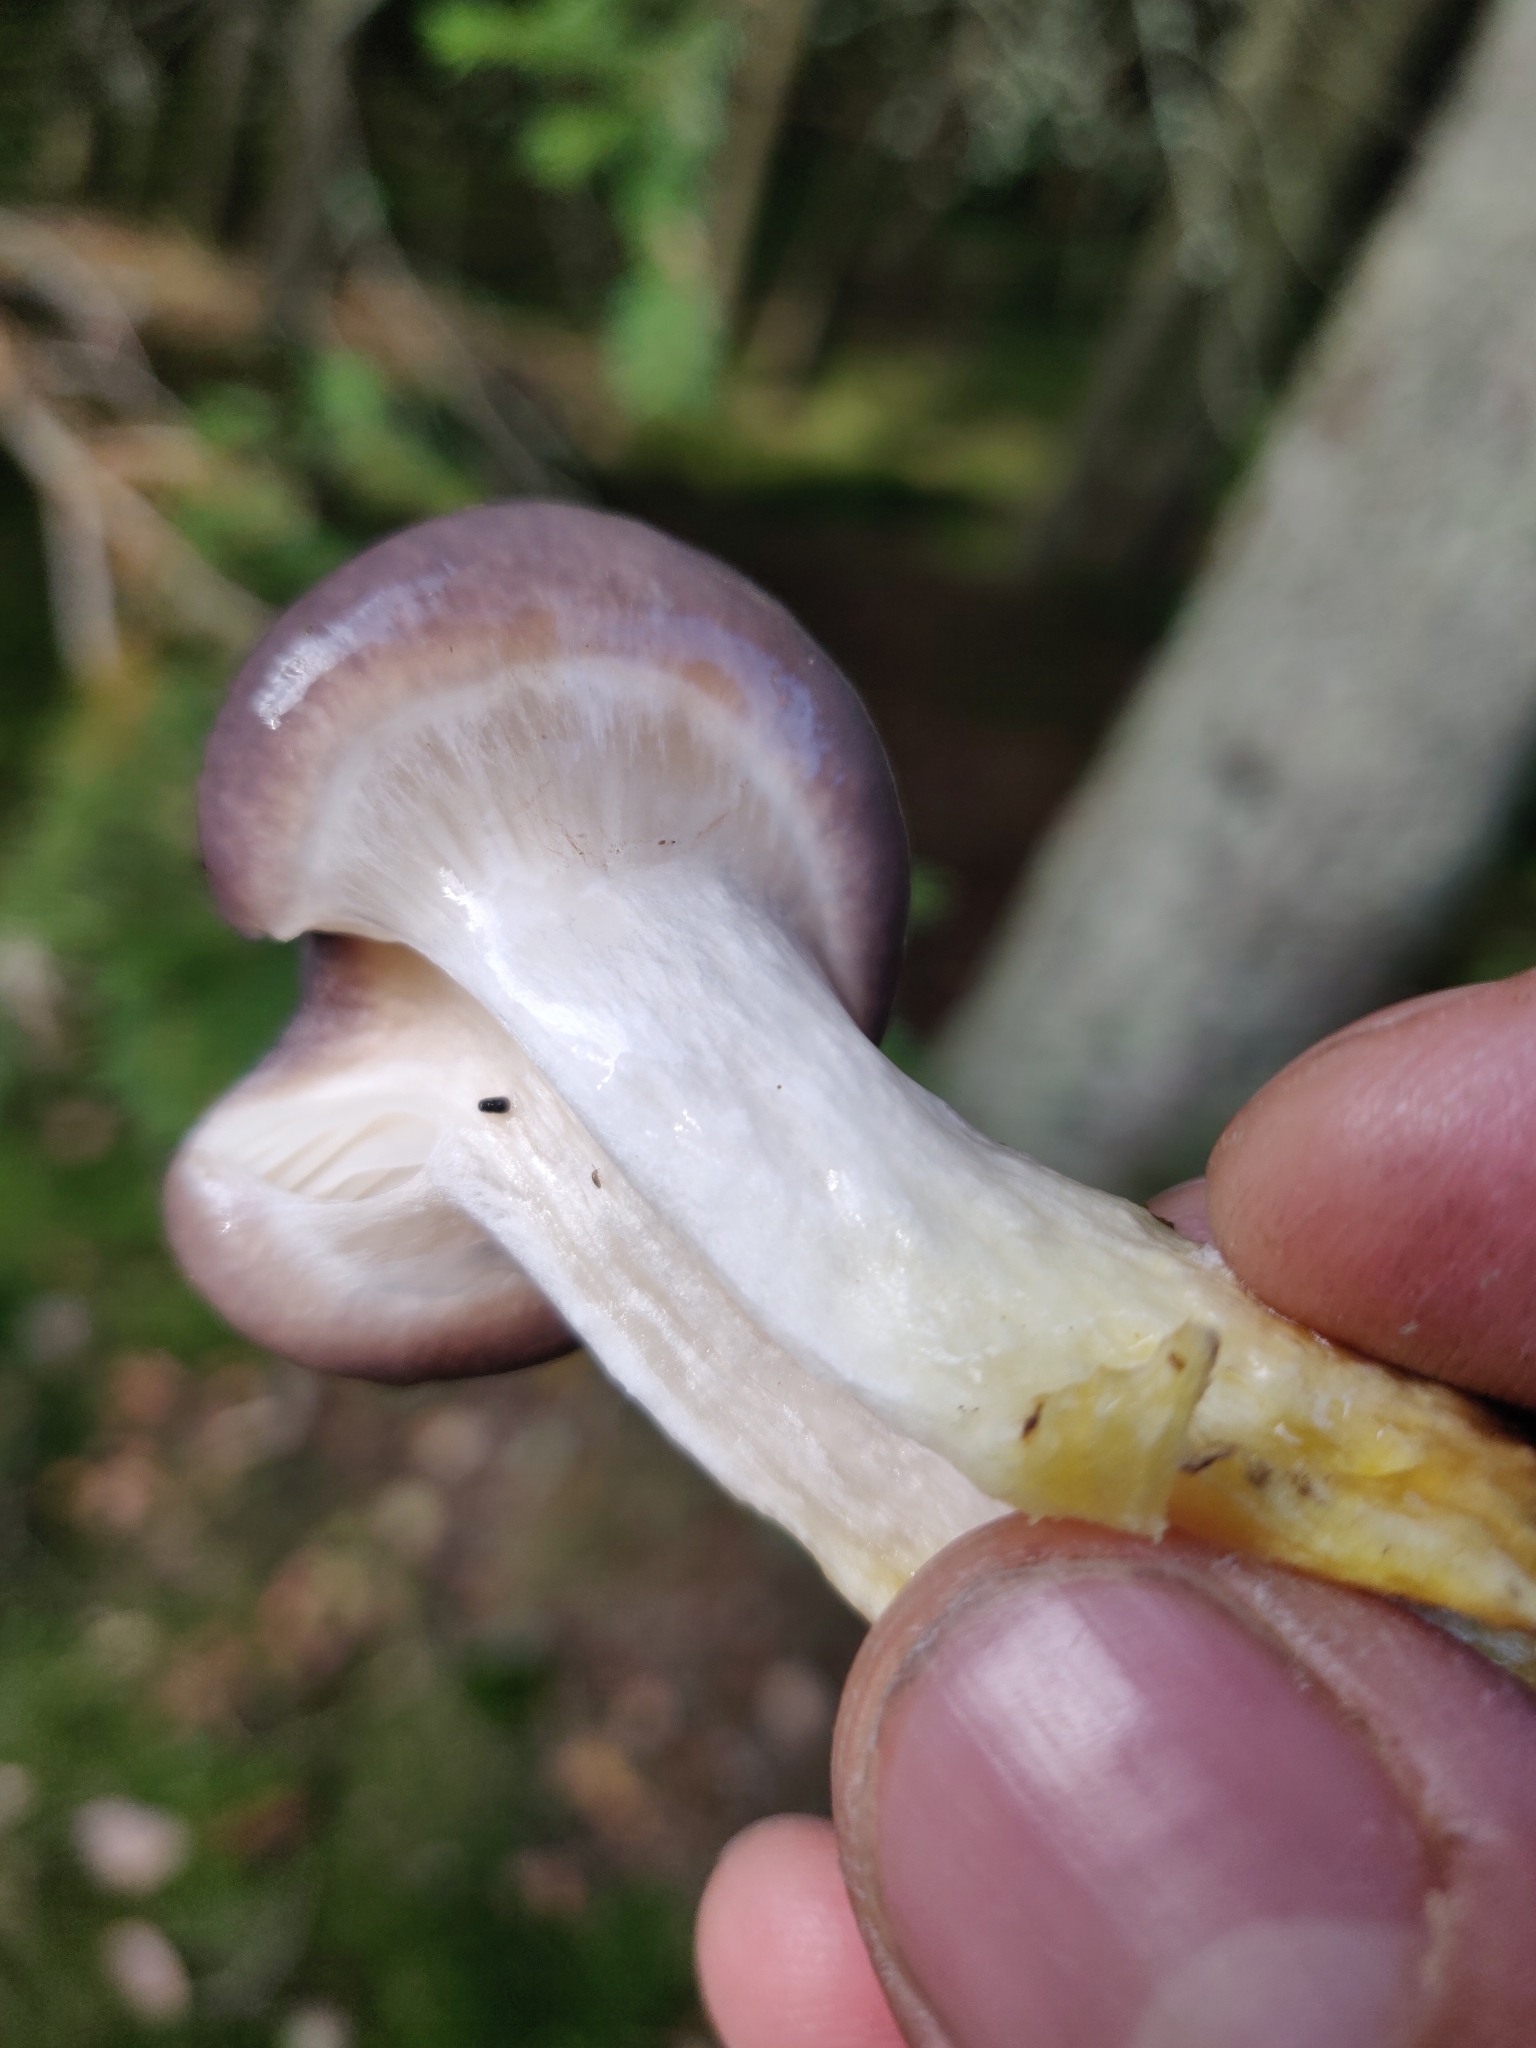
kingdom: Fungi
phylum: Basidiomycota
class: Agaricomycetes
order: Boletales
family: Gomphidiaceae
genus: Gomphidius
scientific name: Gomphidius glutinosus
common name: Slimy spike
